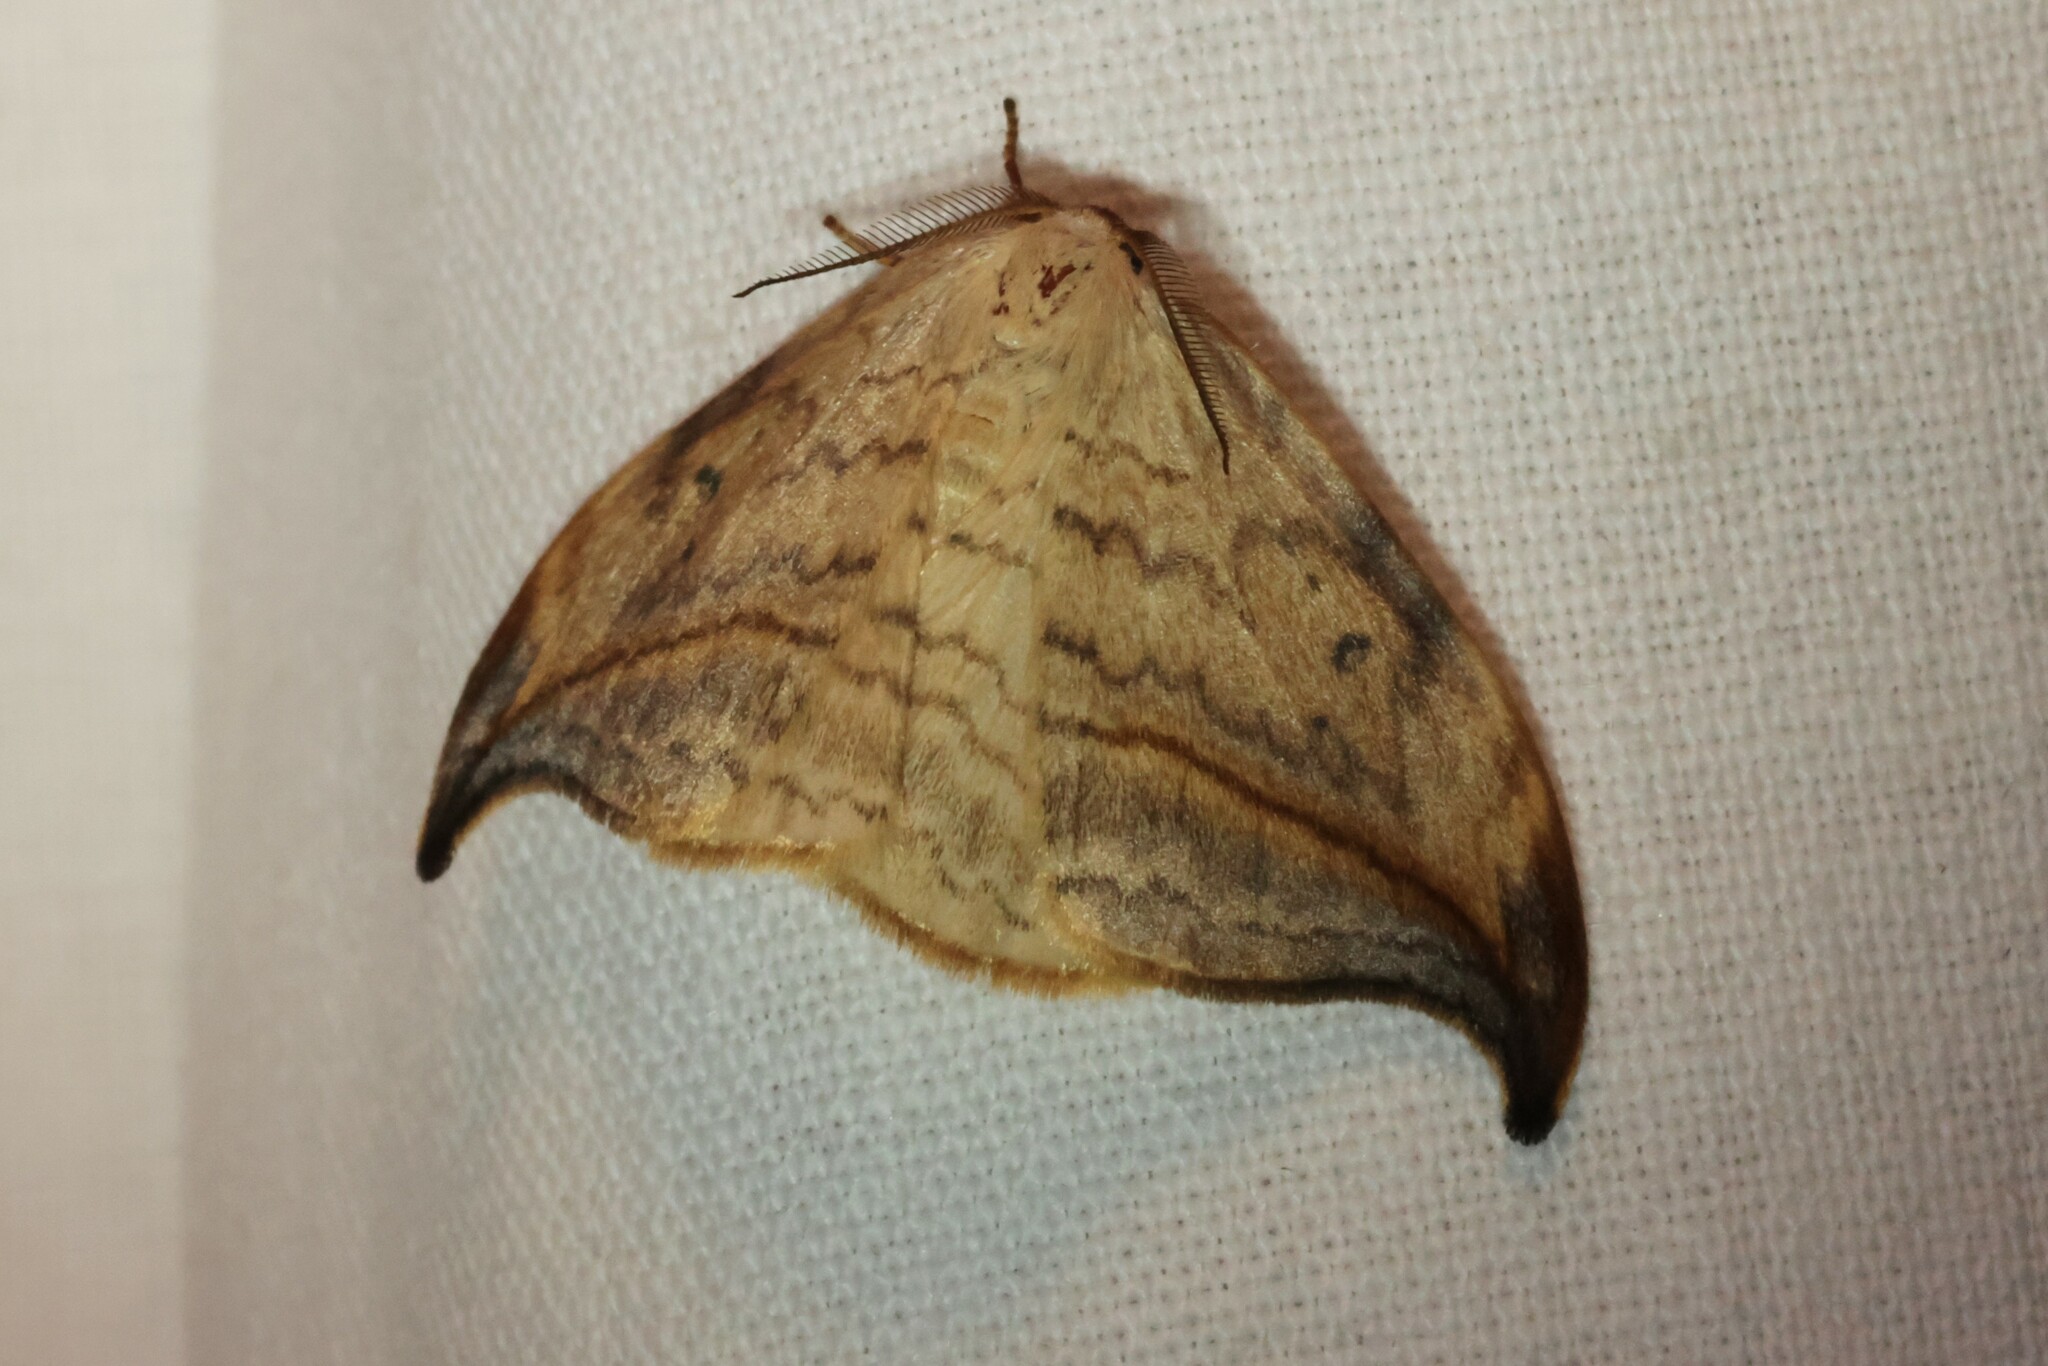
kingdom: Animalia
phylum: Arthropoda
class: Insecta
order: Lepidoptera
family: Drepanidae
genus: Drepana
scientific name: Drepana arcuata
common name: Arched hooktip moth
